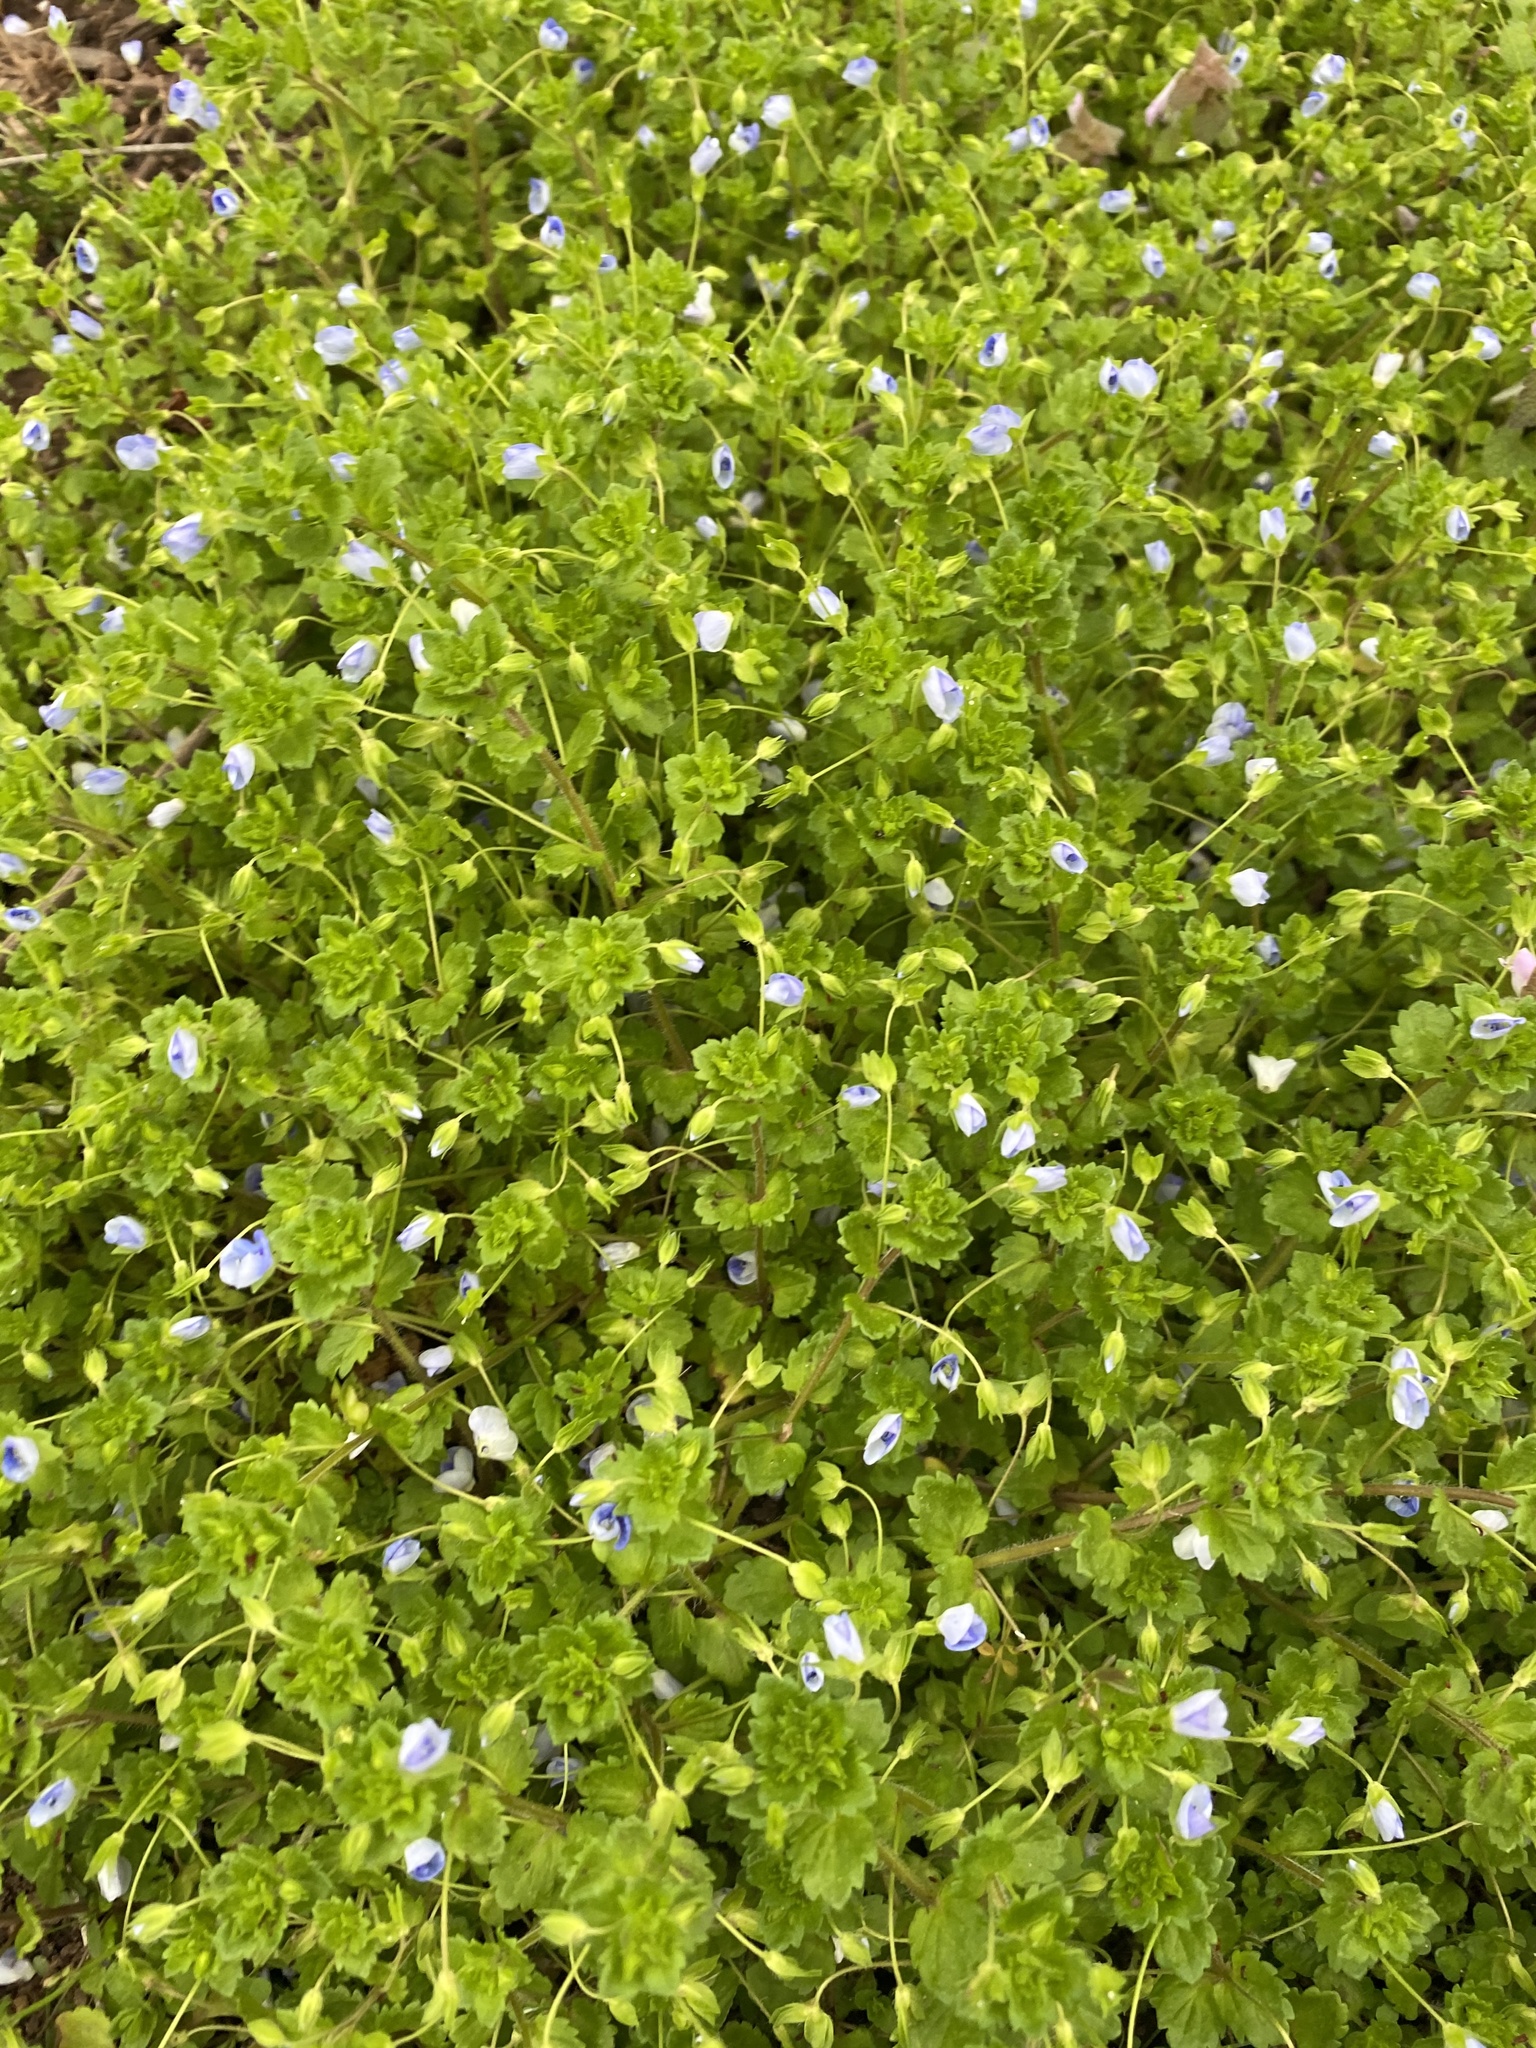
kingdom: Plantae
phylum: Tracheophyta
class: Magnoliopsida
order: Lamiales
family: Plantaginaceae
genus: Veronica
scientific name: Veronica persica
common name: Common field-speedwell
